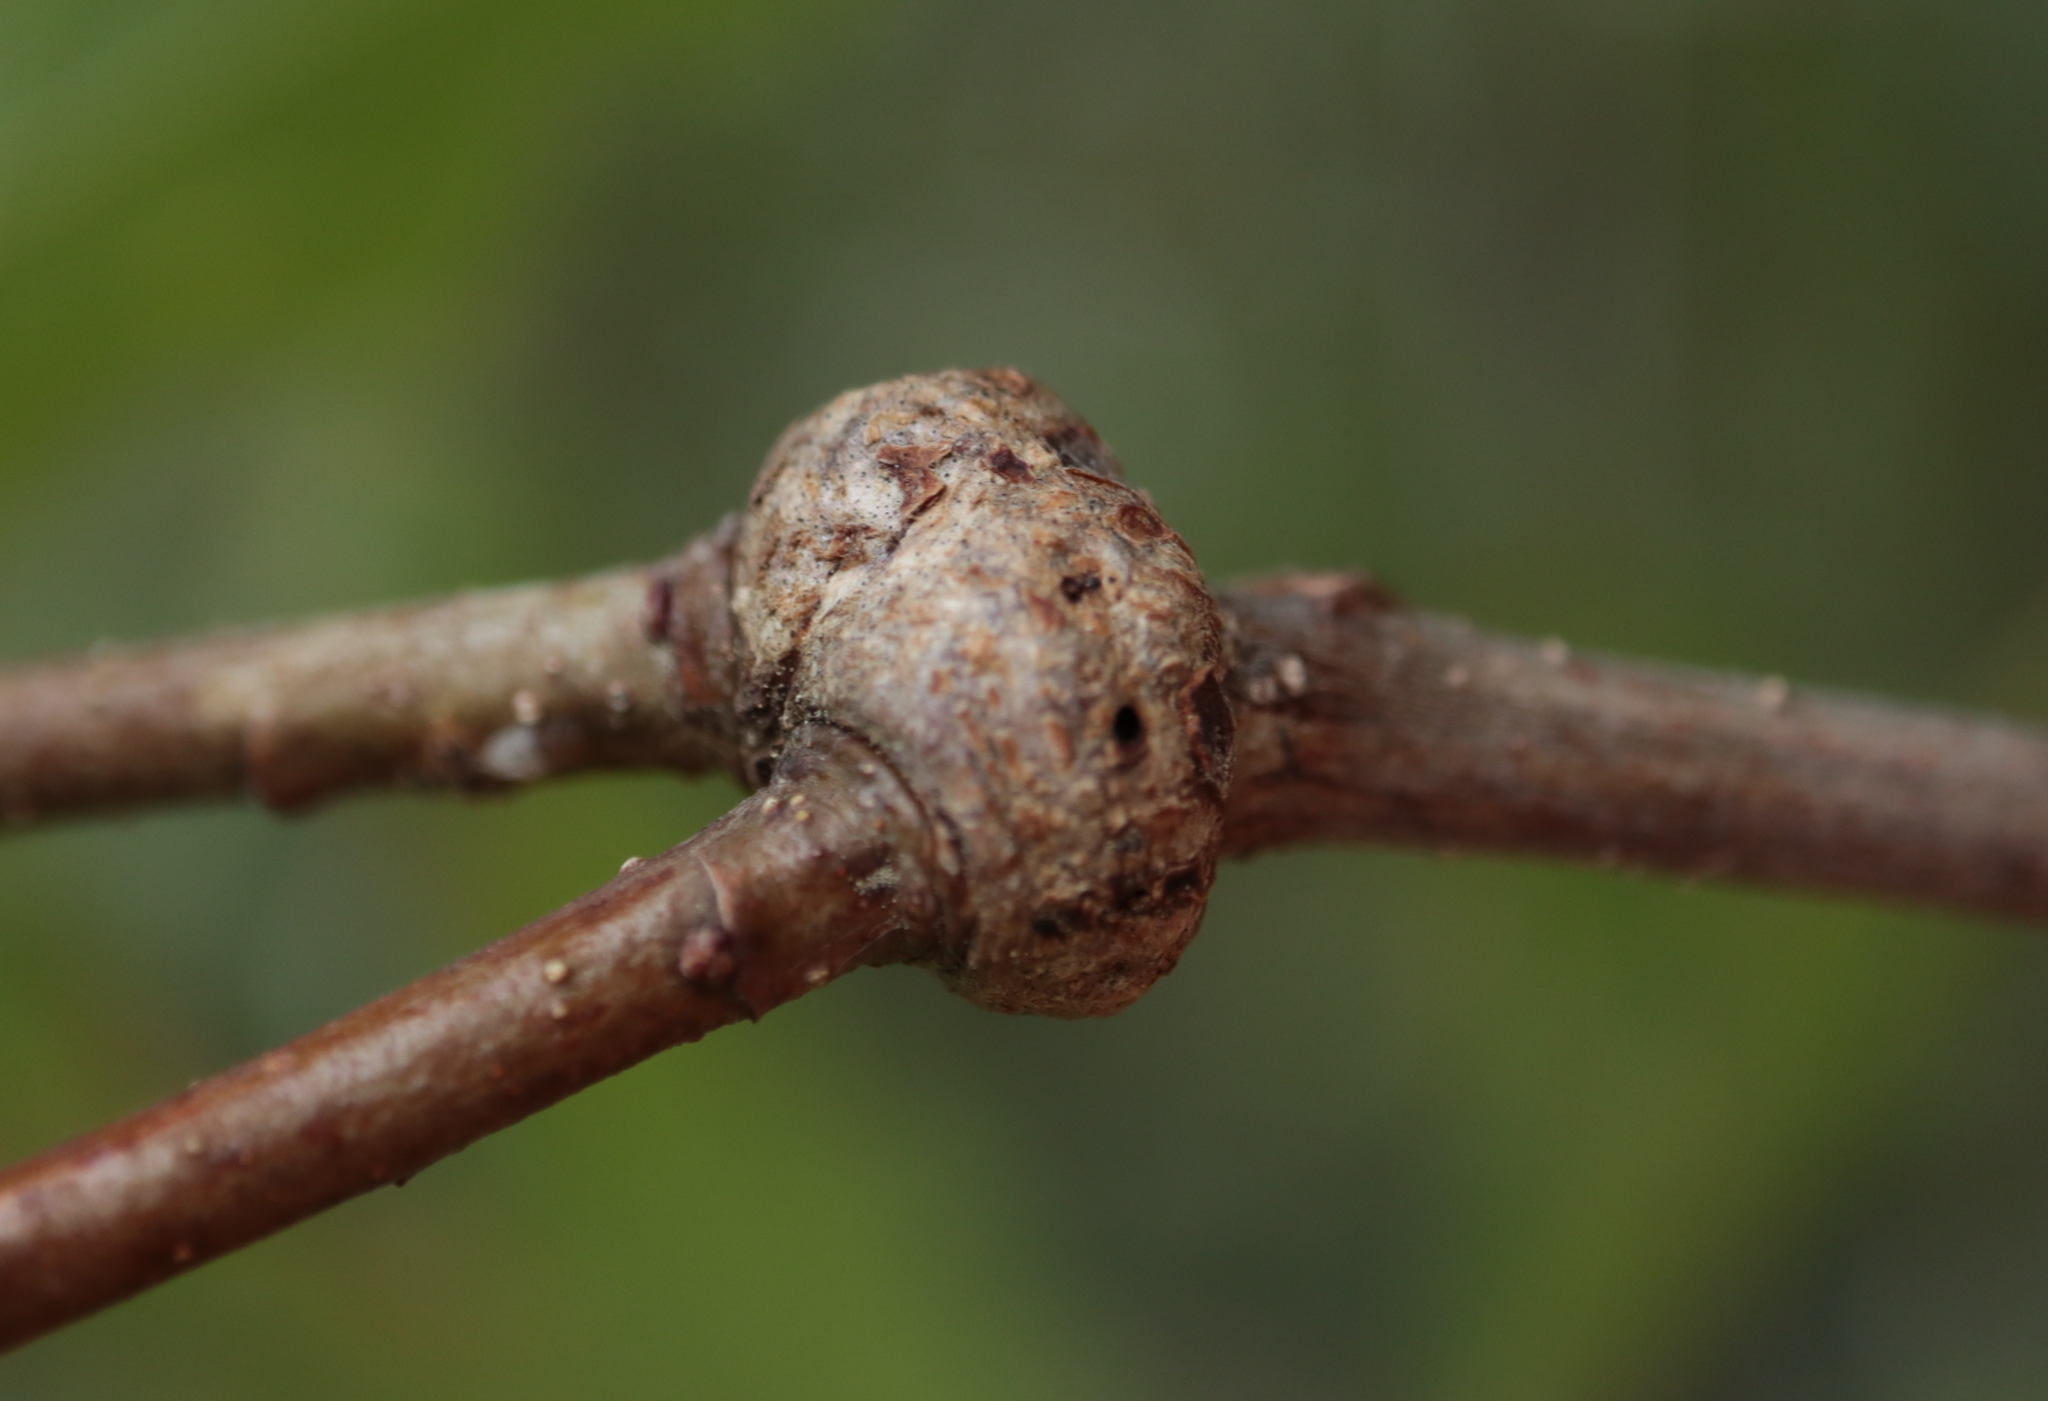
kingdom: Animalia
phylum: Arthropoda
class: Insecta
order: Hymenoptera
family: Cynipidae
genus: Loxaulus
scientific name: Loxaulus
